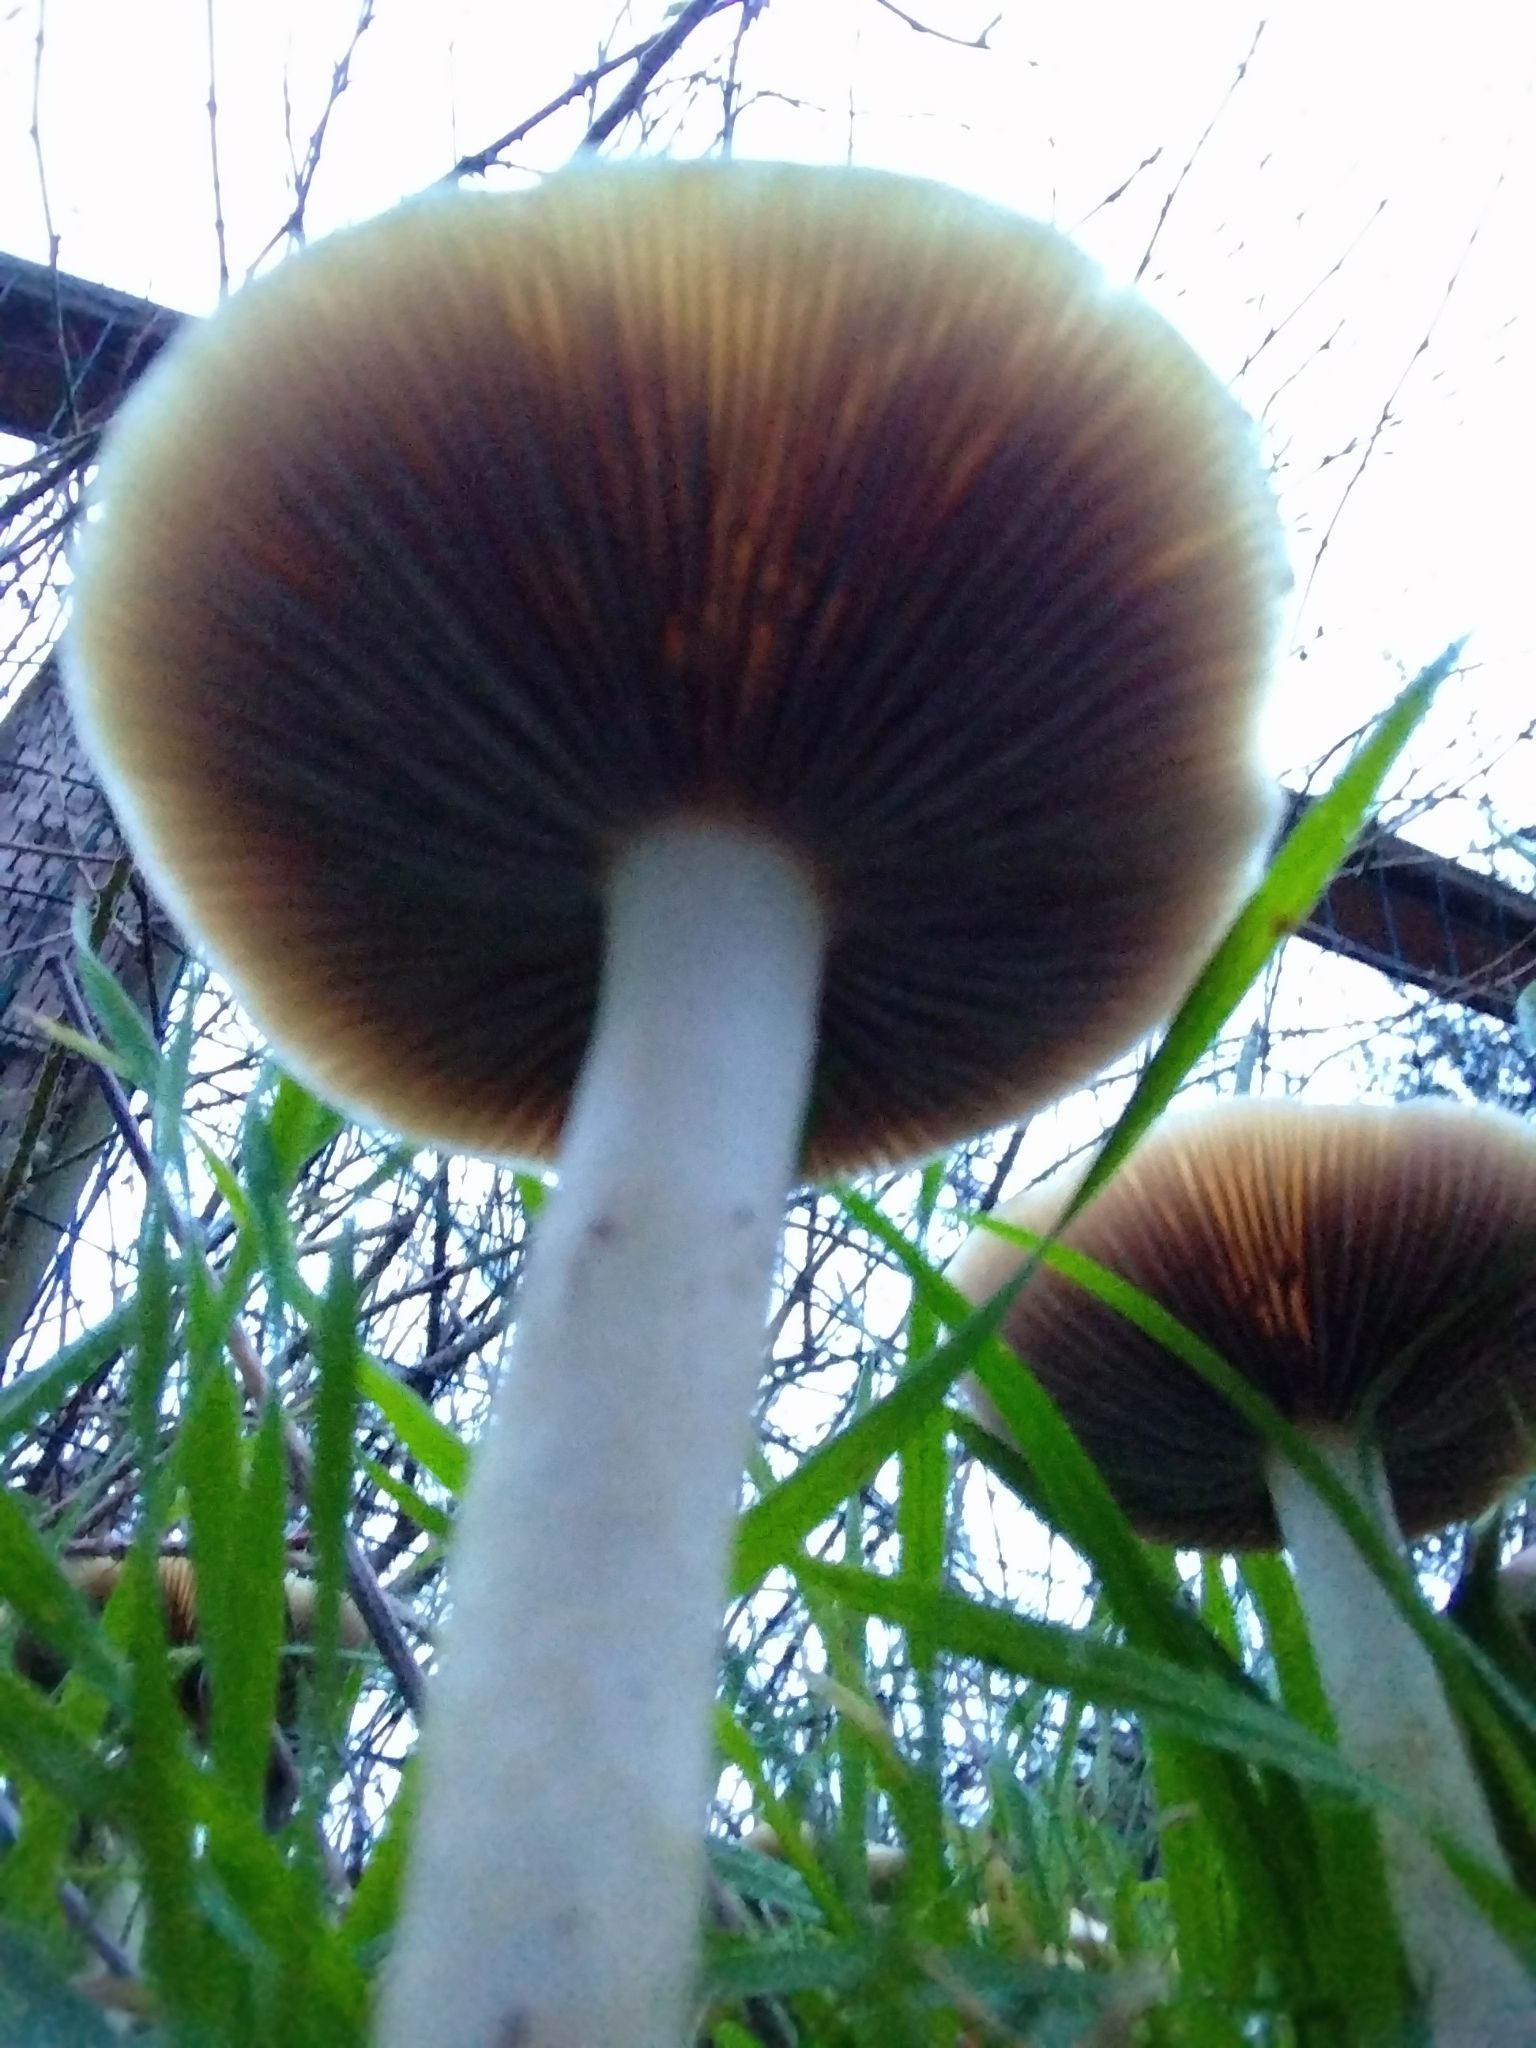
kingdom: Fungi
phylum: Basidiomycota
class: Agaricomycetes
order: Agaricales
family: Strophariaceae
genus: Leratiomyces
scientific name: Leratiomyces percevalii
